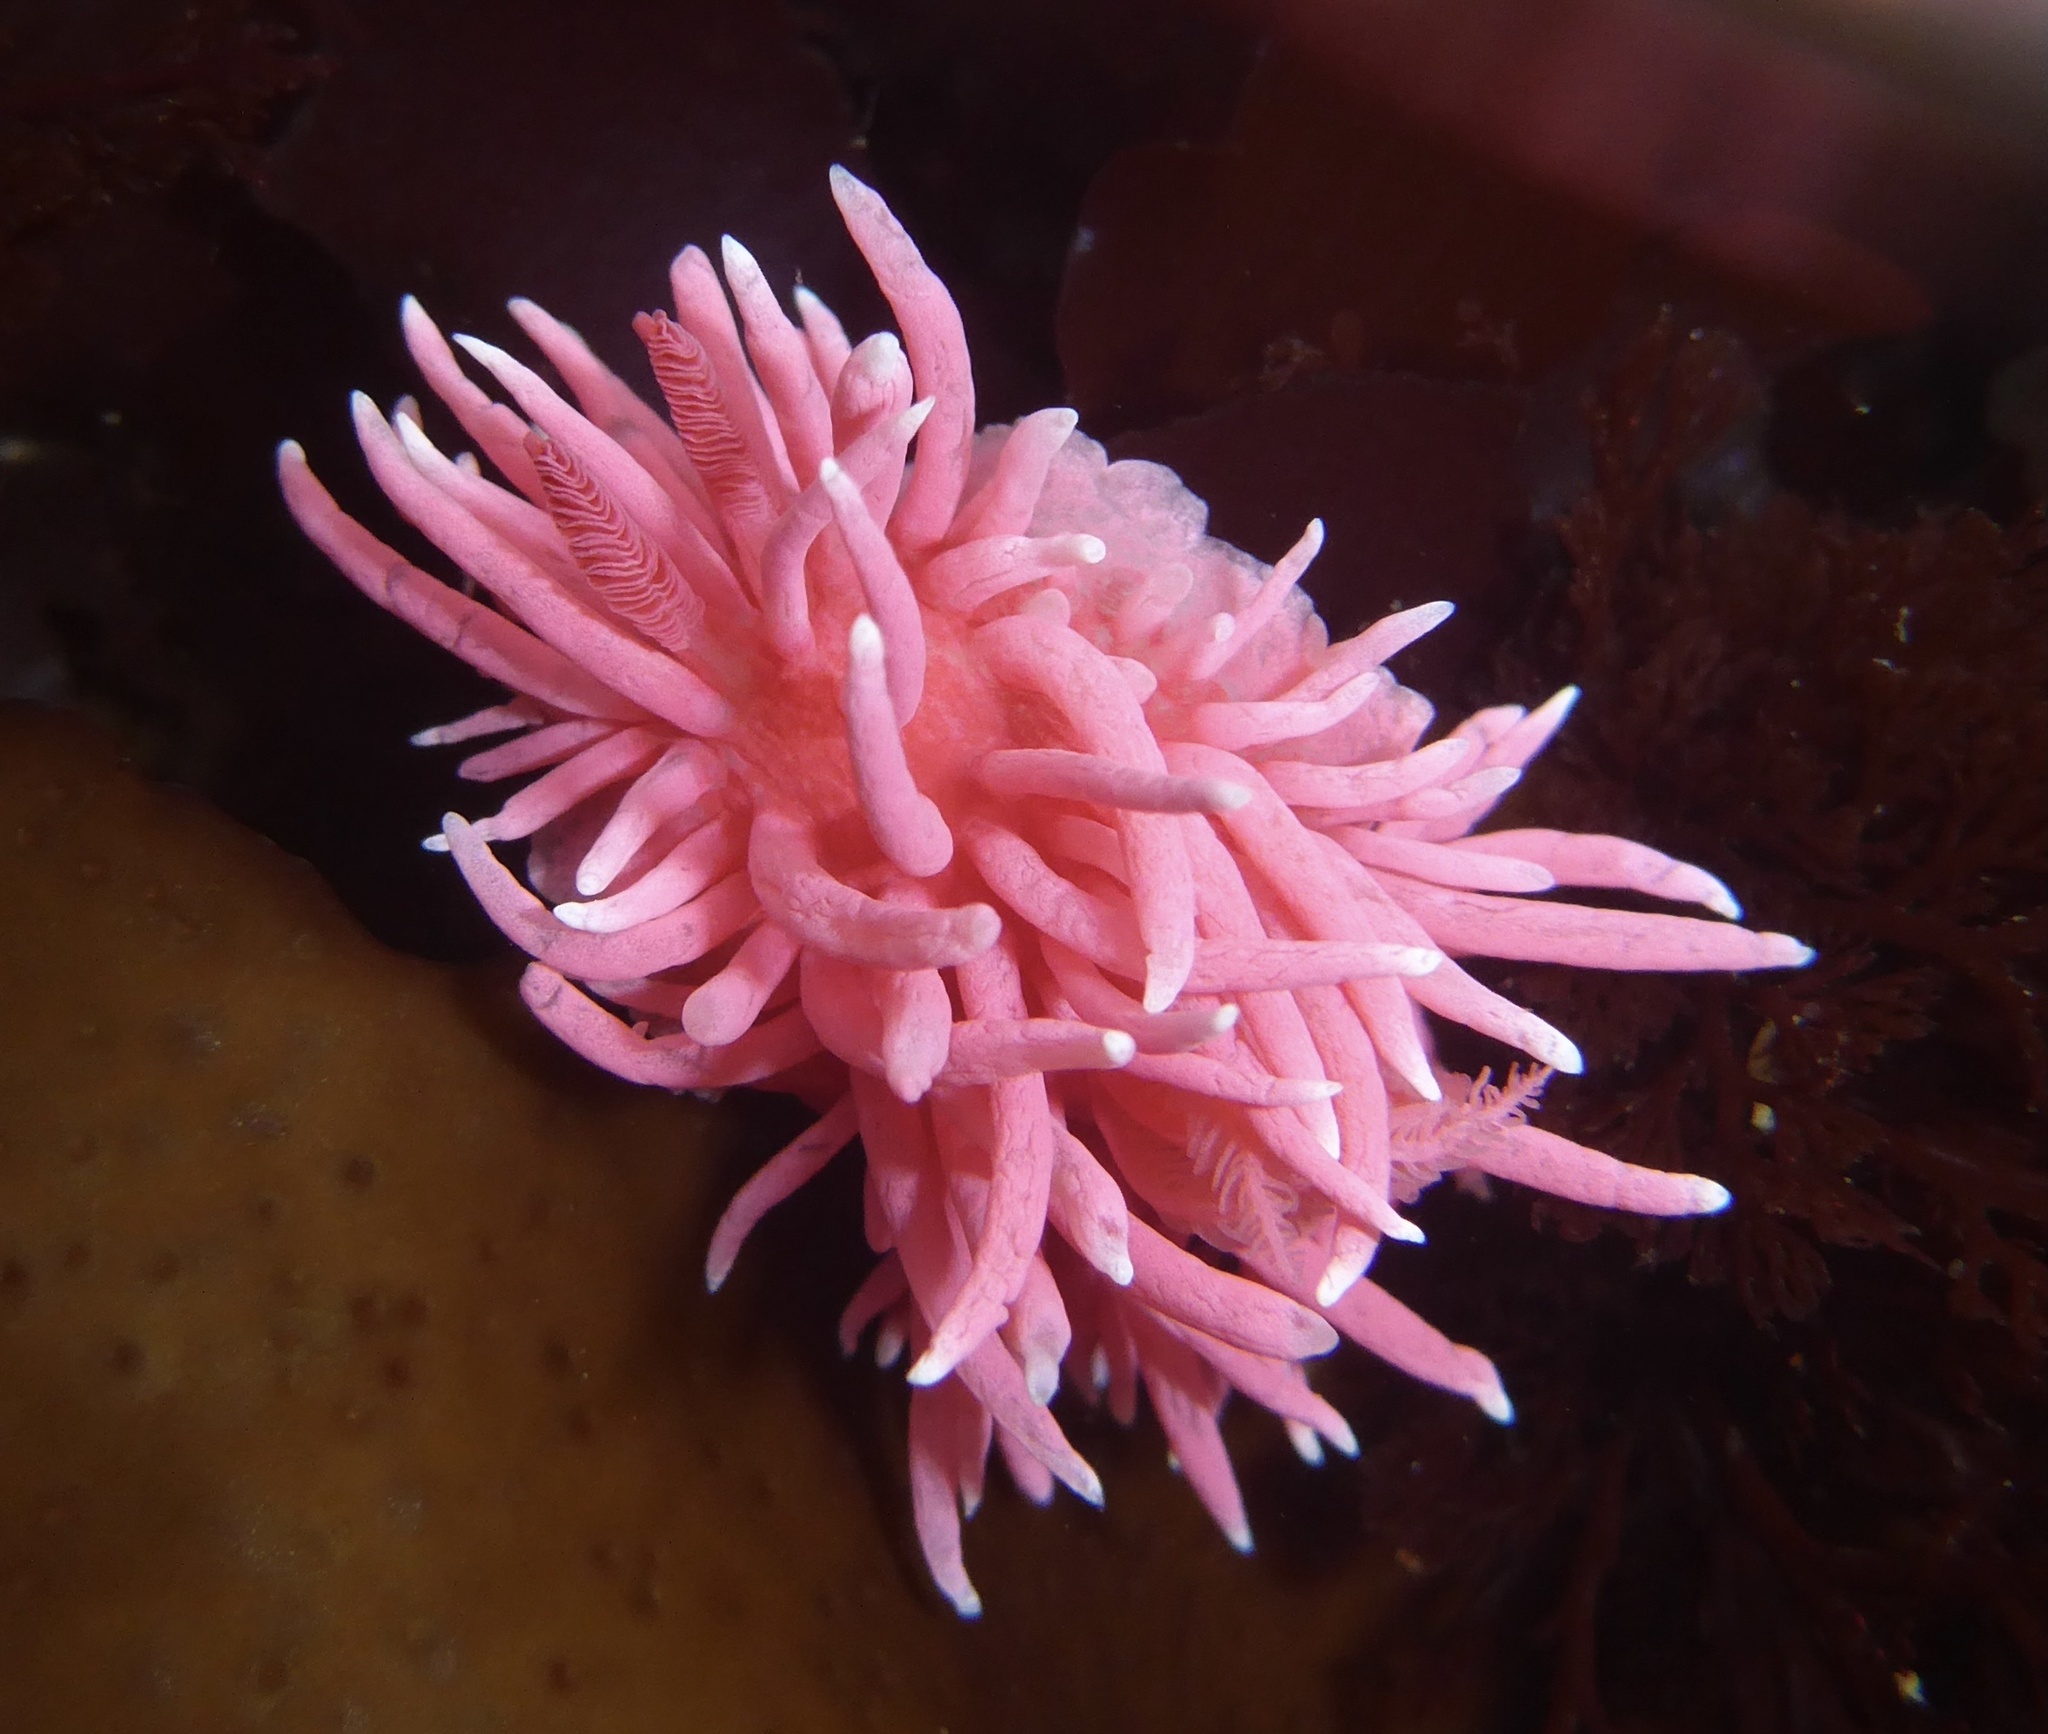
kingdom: Animalia
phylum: Mollusca
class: Gastropoda
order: Nudibranchia
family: Goniodorididae
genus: Okenia
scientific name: Okenia
